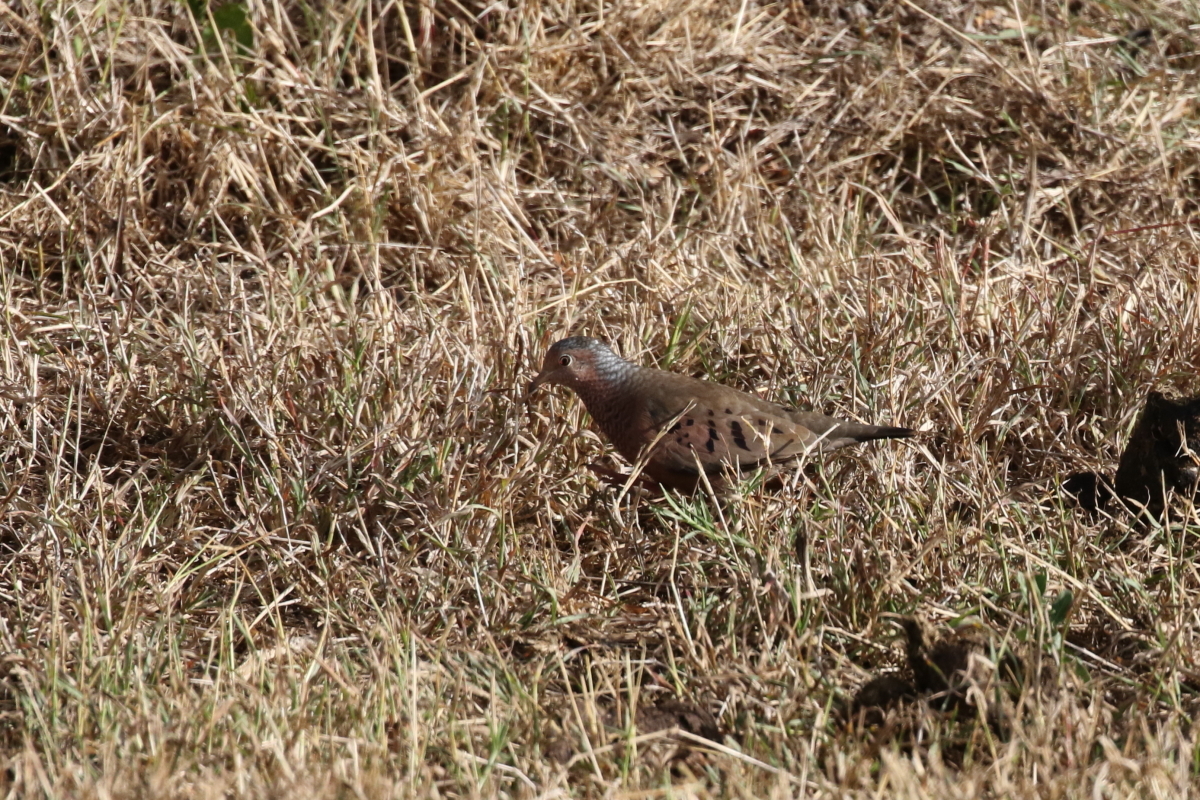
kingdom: Animalia
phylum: Chordata
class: Aves
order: Columbiformes
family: Columbidae
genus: Columbina
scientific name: Columbina passerina
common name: Common ground-dove
